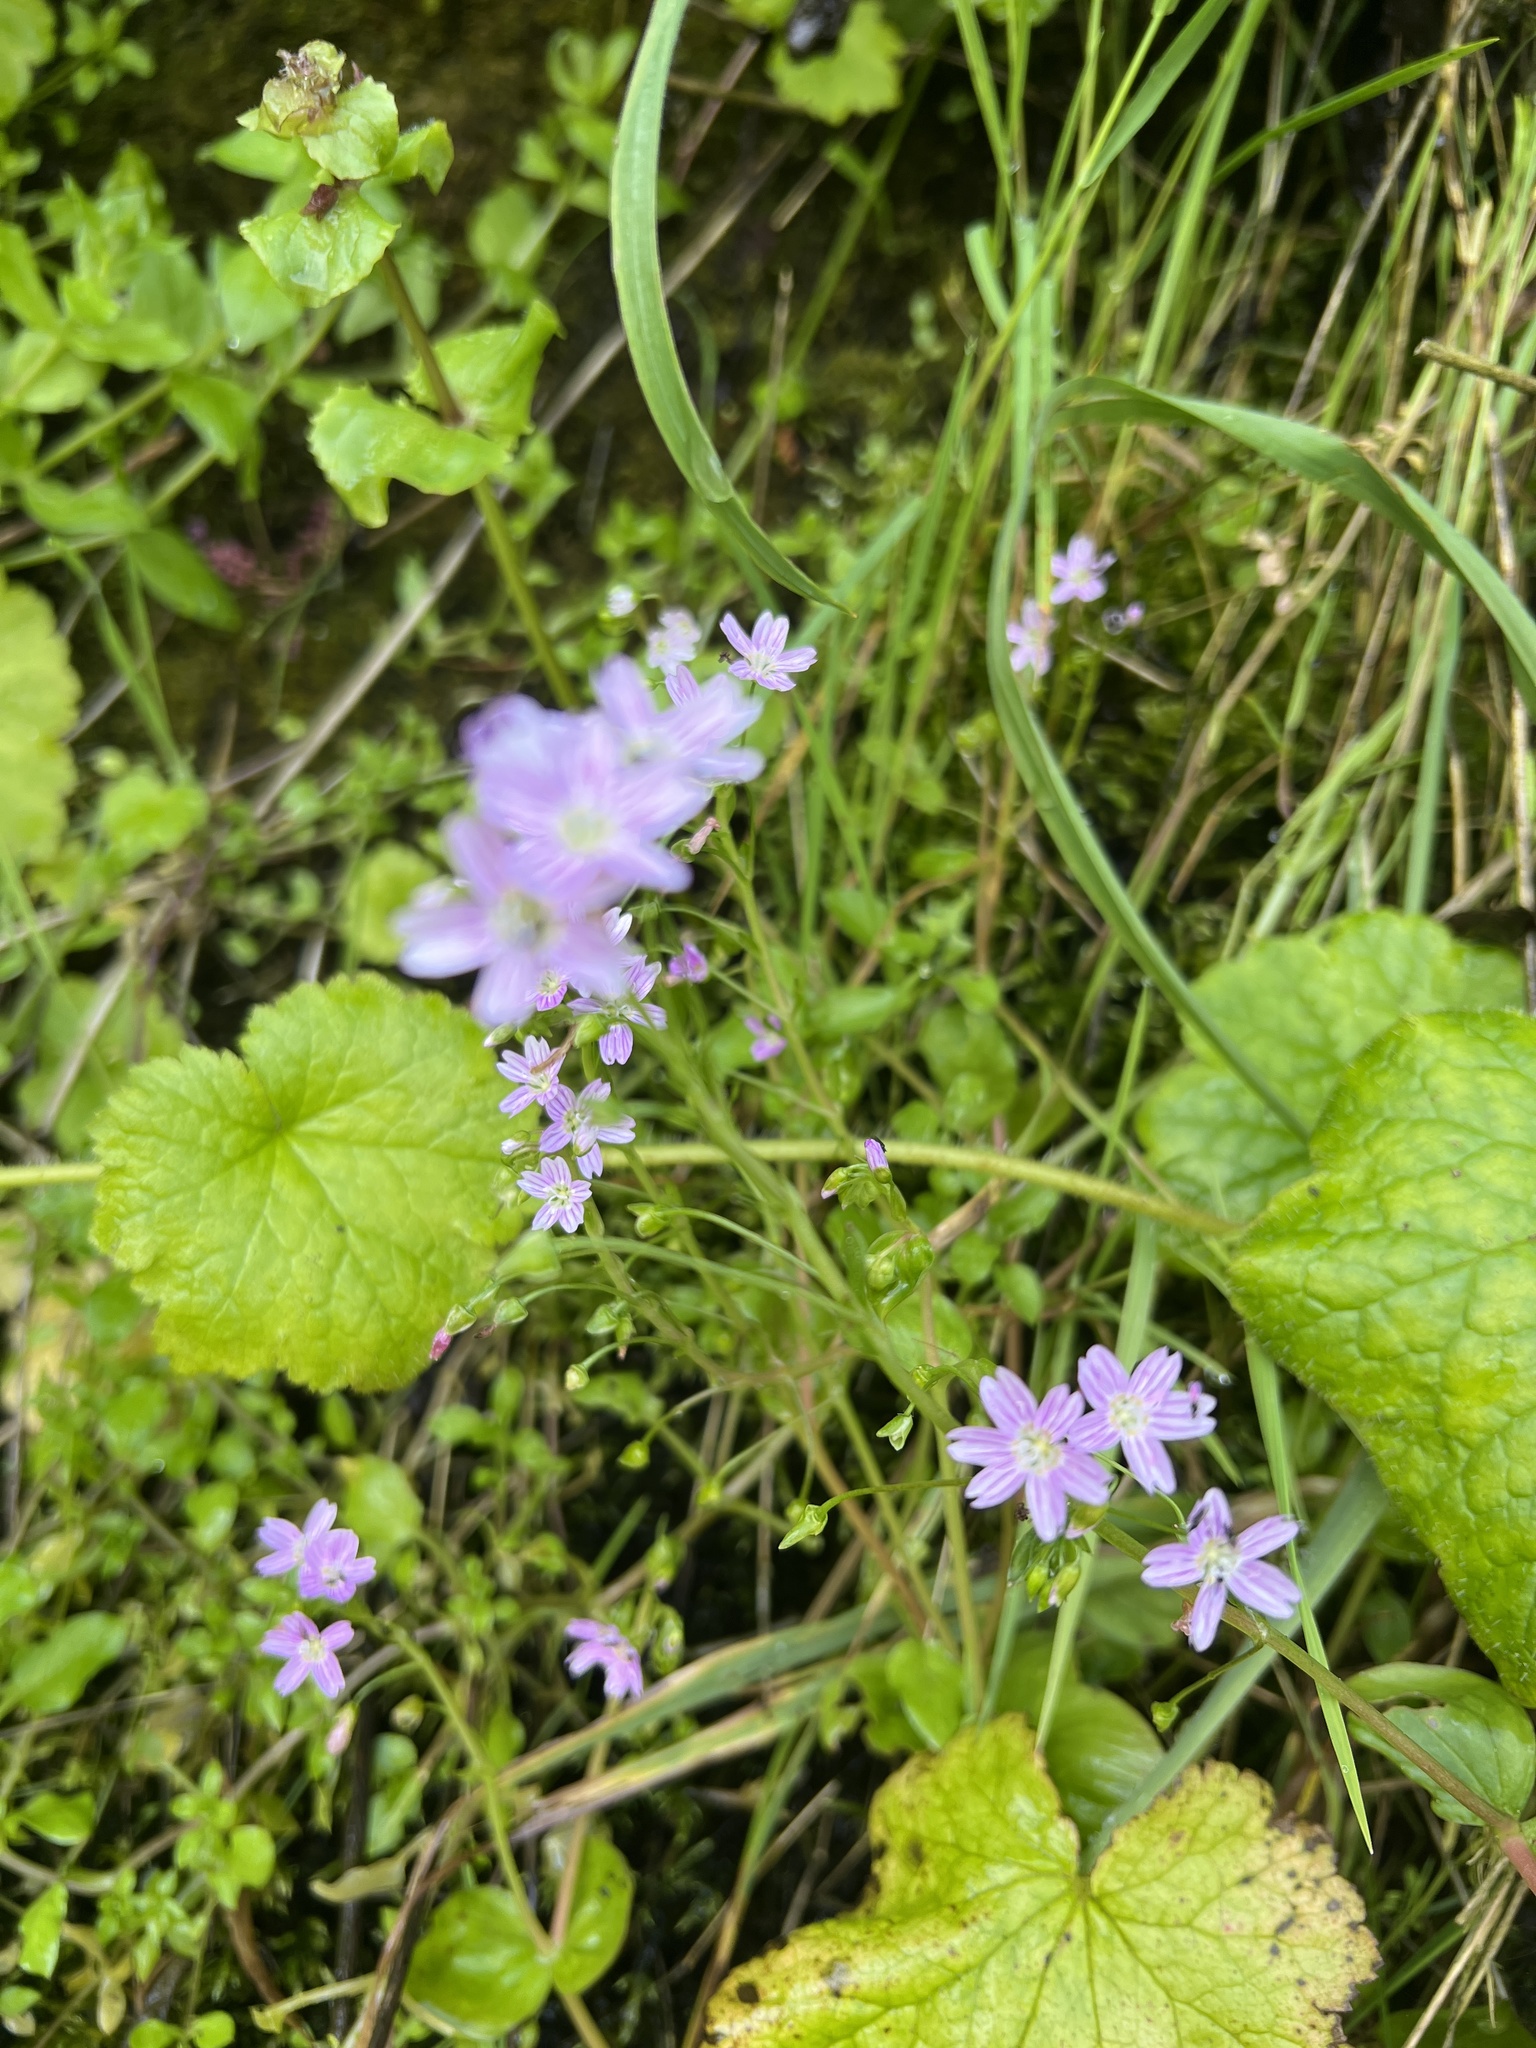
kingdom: Plantae
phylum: Tracheophyta
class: Magnoliopsida
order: Caryophyllales
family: Montiaceae
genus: Claytonia
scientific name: Claytonia sibirica
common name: Pink purslane
